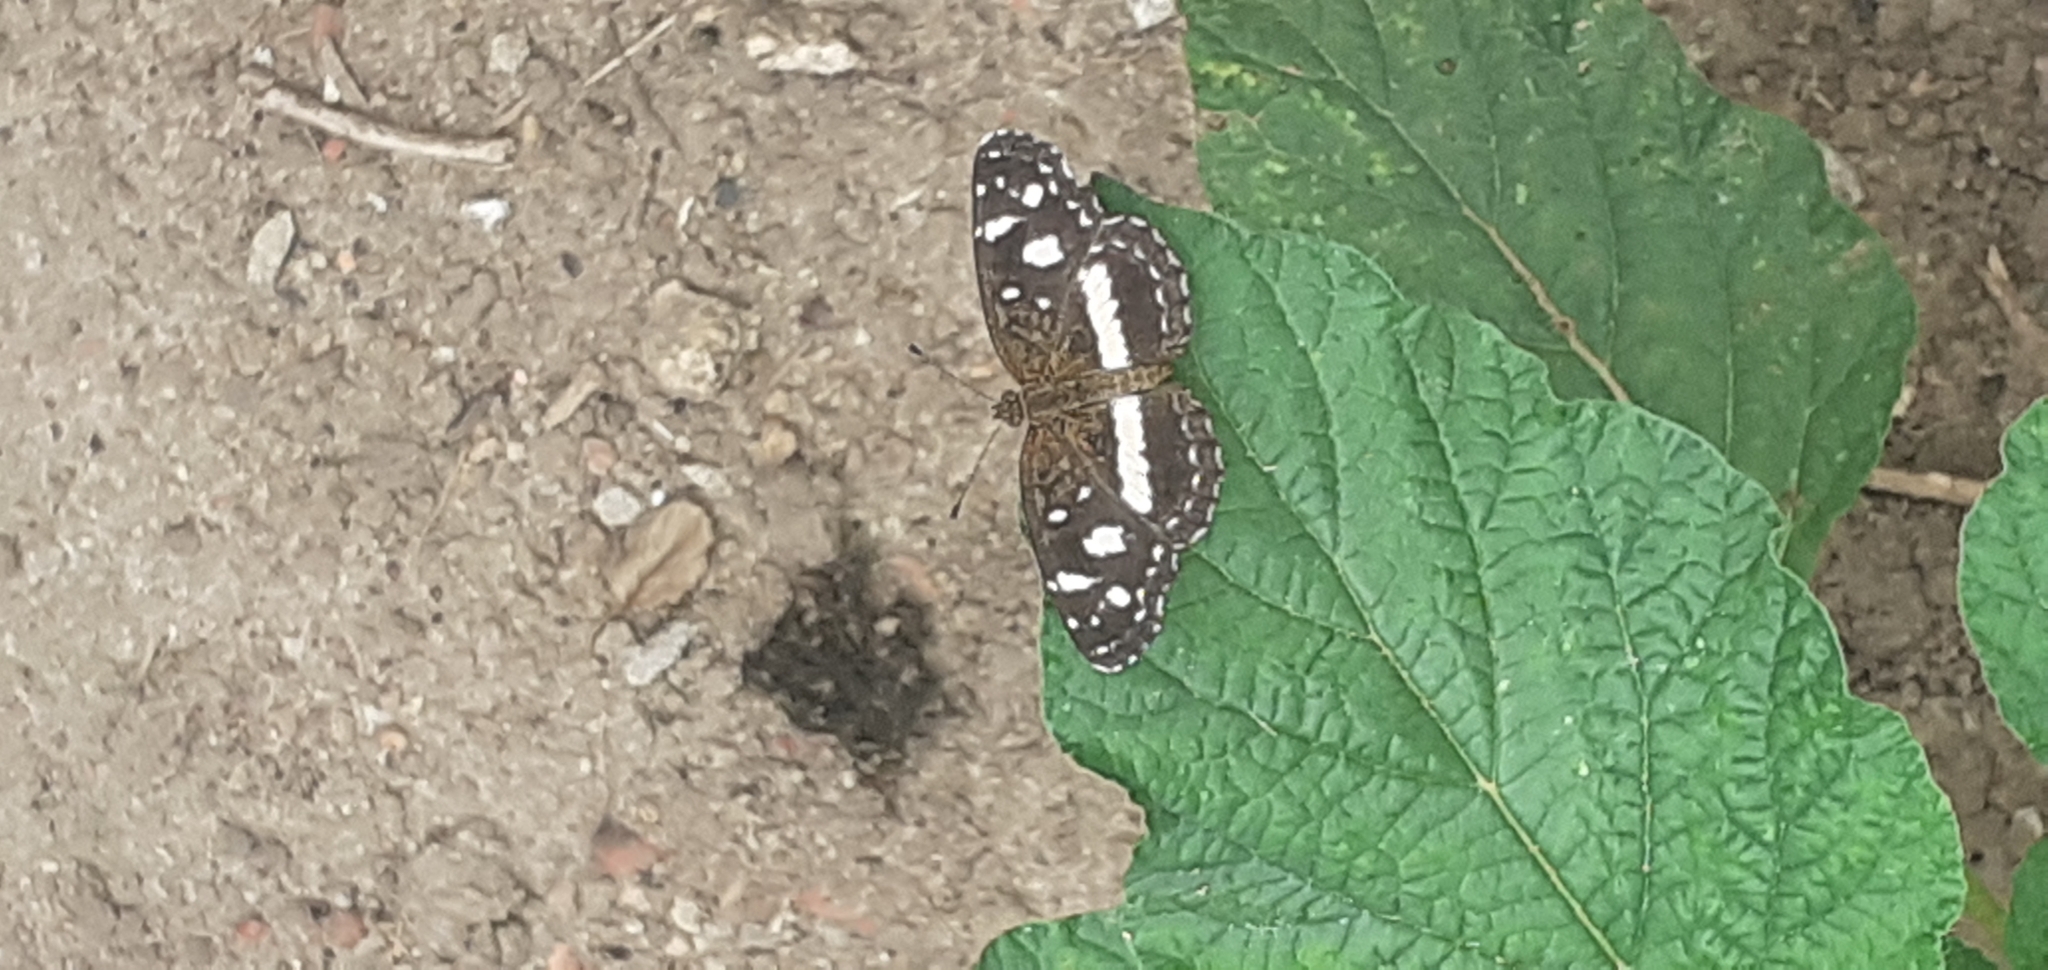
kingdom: Animalia
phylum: Arthropoda
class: Insecta
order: Lepidoptera
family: Nymphalidae
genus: Ortilia
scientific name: Ortilia ithra
